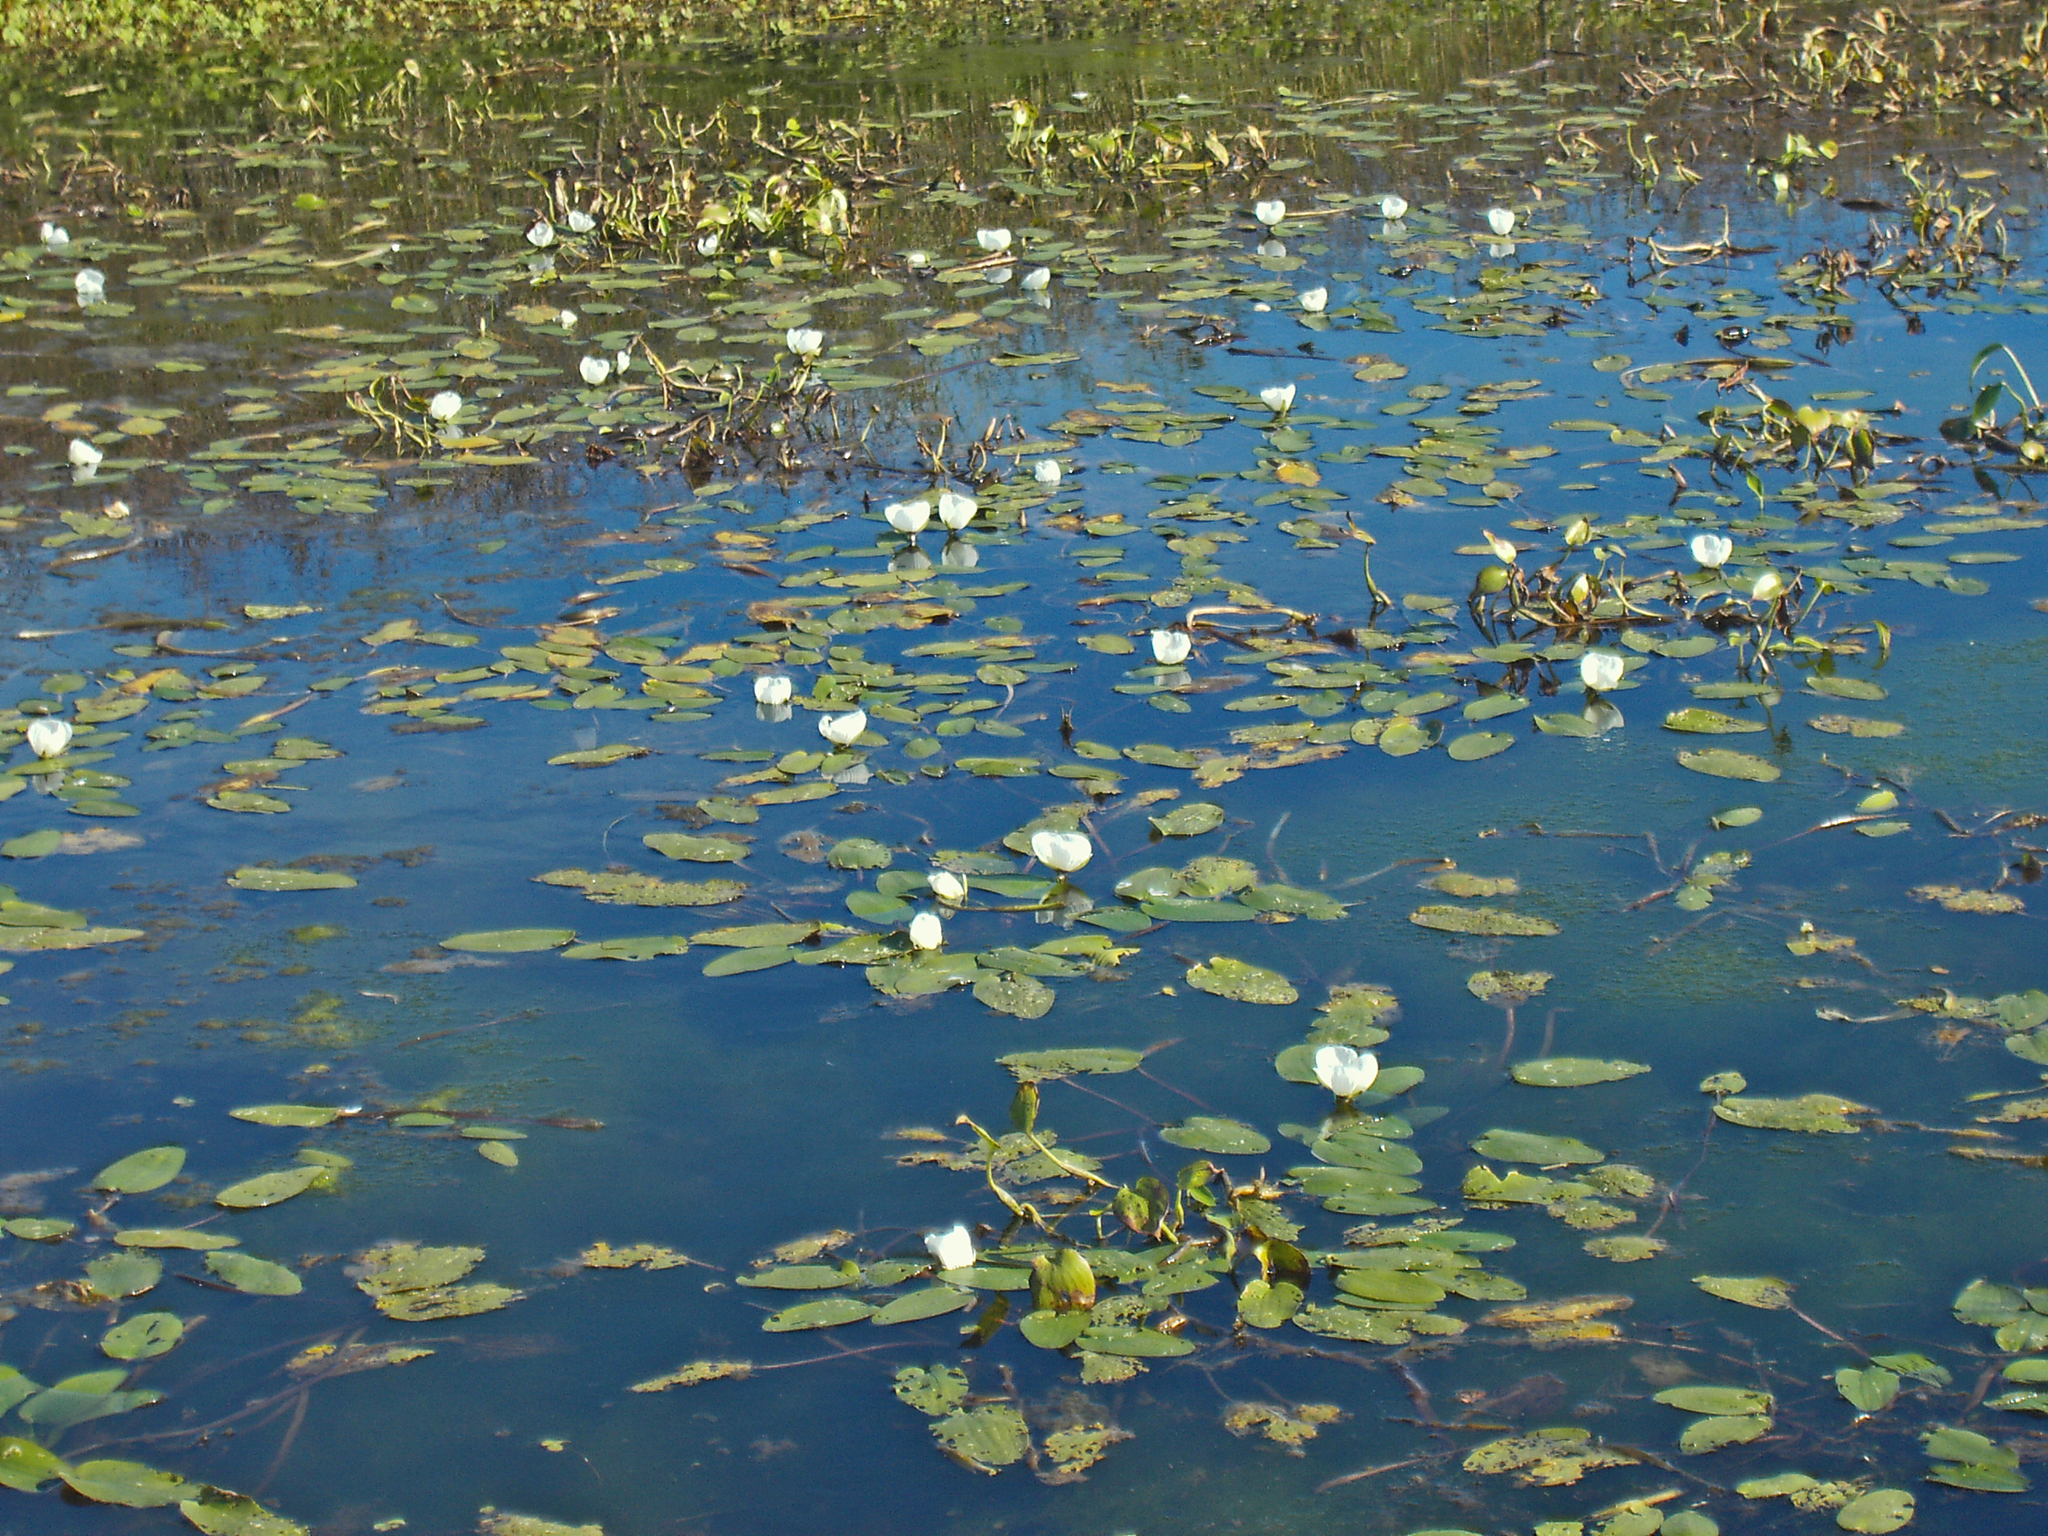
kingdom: Plantae
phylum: Tracheophyta
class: Liliopsida
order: Alismatales
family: Hydrocharitaceae
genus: Ottelia
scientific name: Ottelia ovalifolia
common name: Swamp-lily
